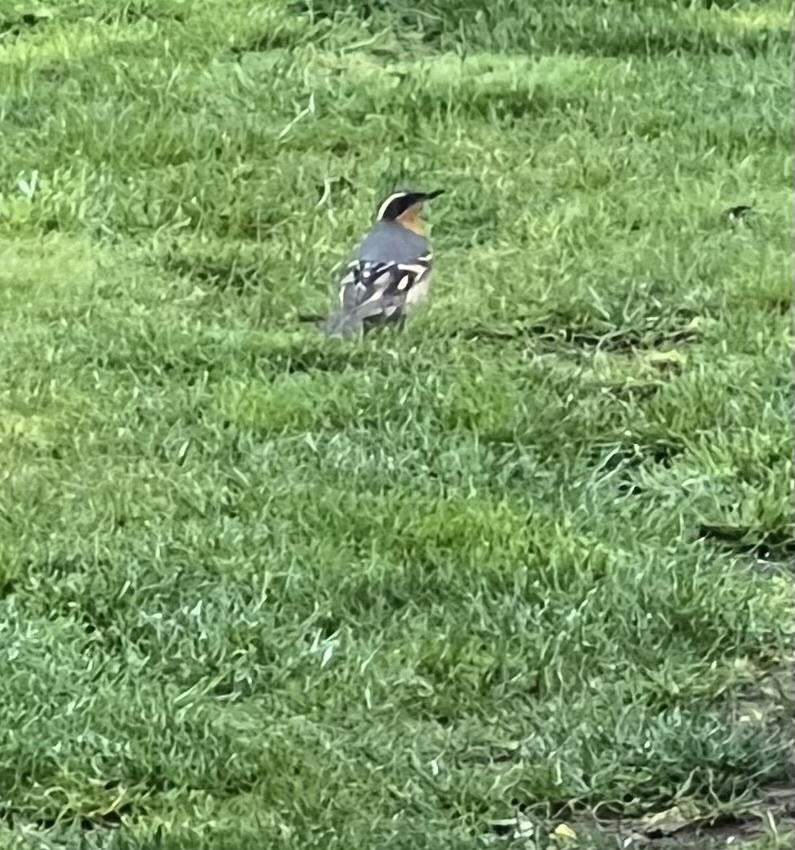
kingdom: Animalia
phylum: Chordata
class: Aves
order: Passeriformes
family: Turdidae
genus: Ixoreus
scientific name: Ixoreus naevius
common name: Varied thrush
